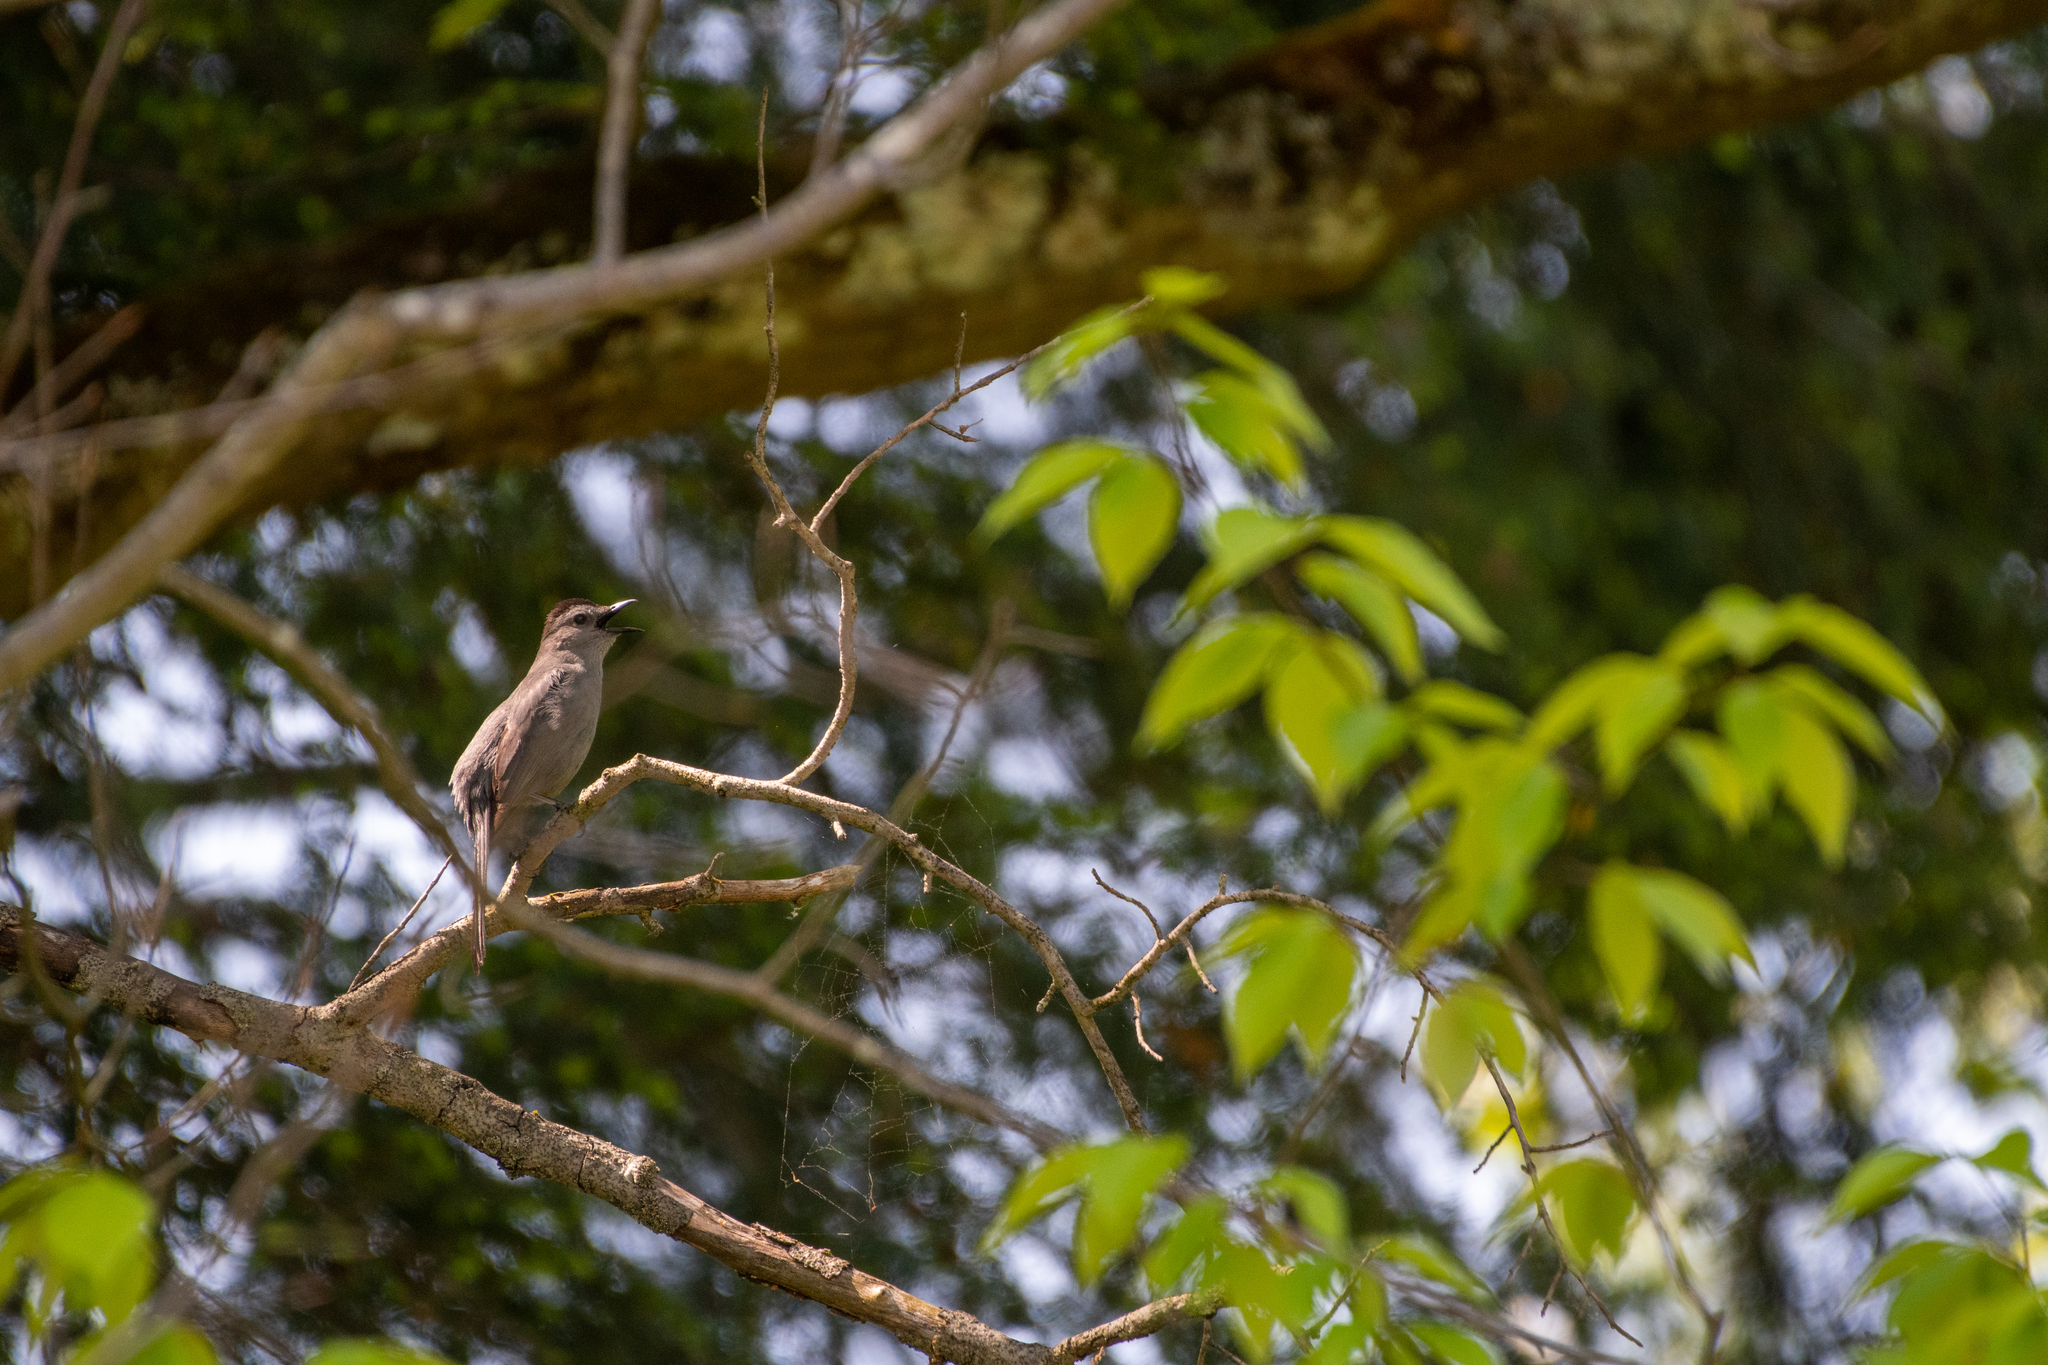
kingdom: Animalia
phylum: Chordata
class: Aves
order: Passeriformes
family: Mimidae
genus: Dumetella
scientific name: Dumetella carolinensis
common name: Gray catbird
